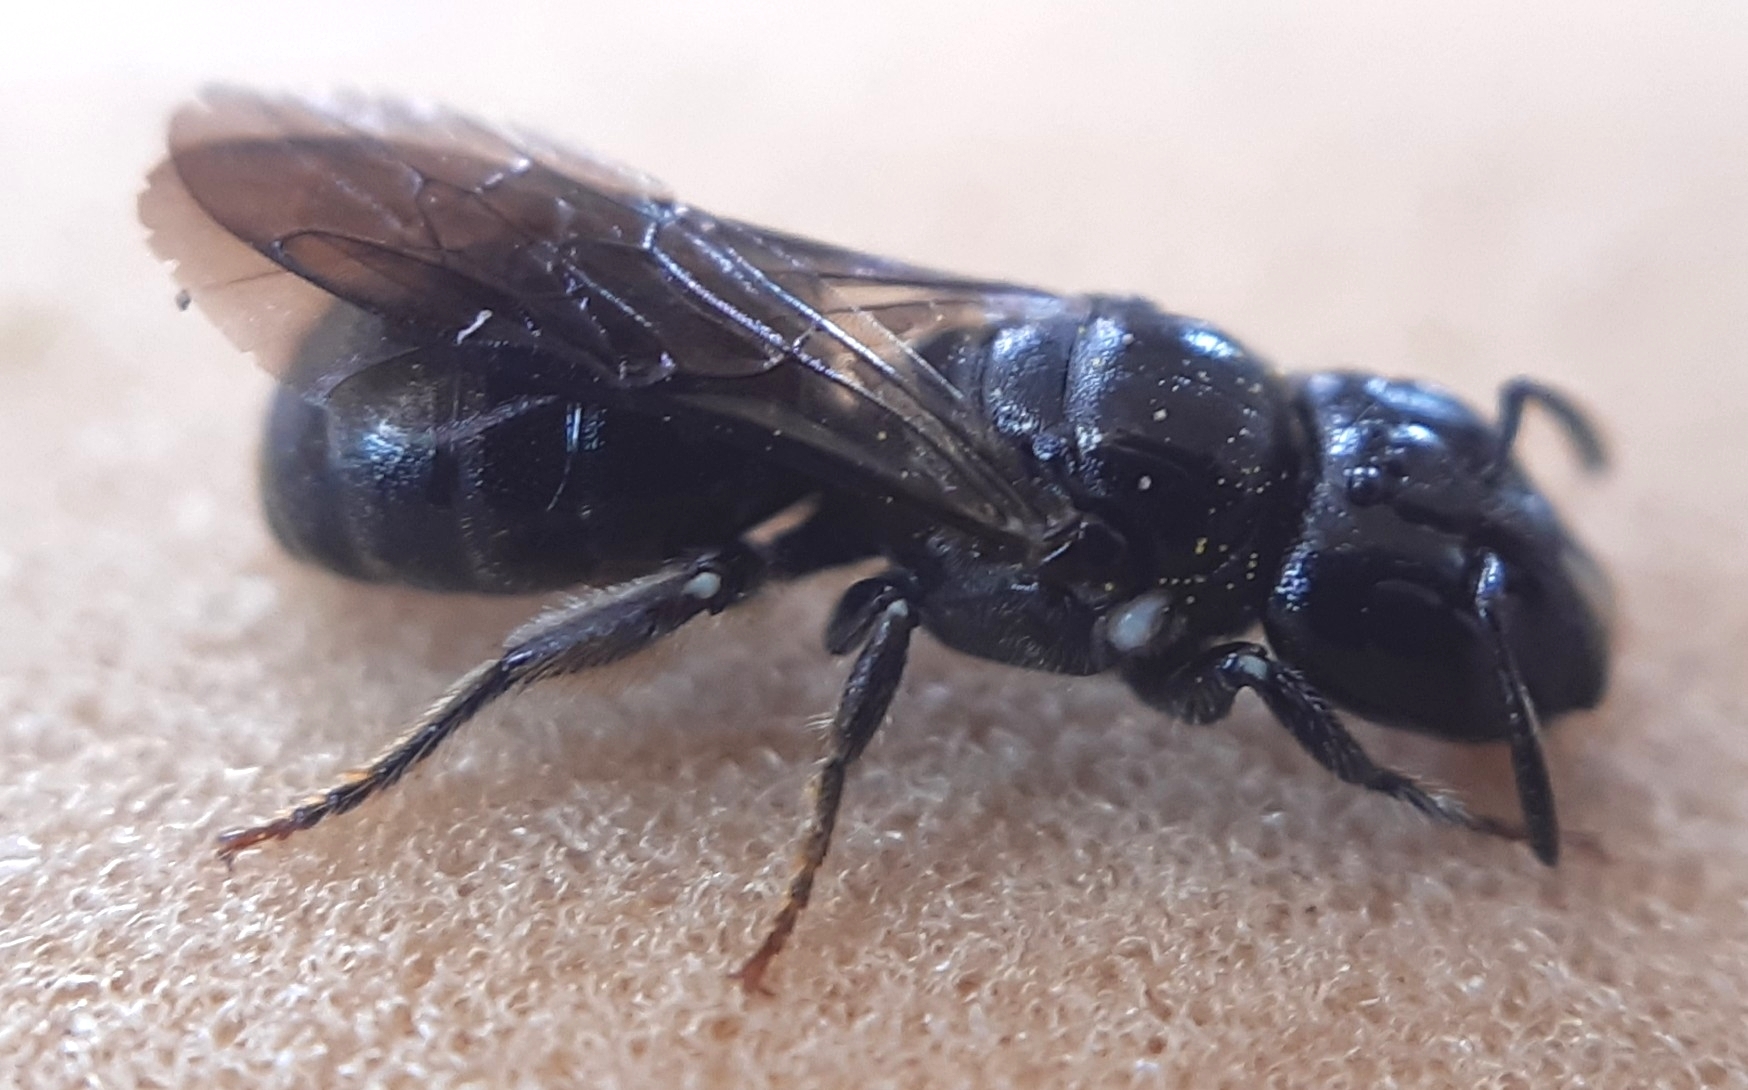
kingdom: Animalia
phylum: Arthropoda
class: Insecta
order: Hymenoptera
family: Apidae
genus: Ceratina
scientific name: Ceratina cucurbitina
